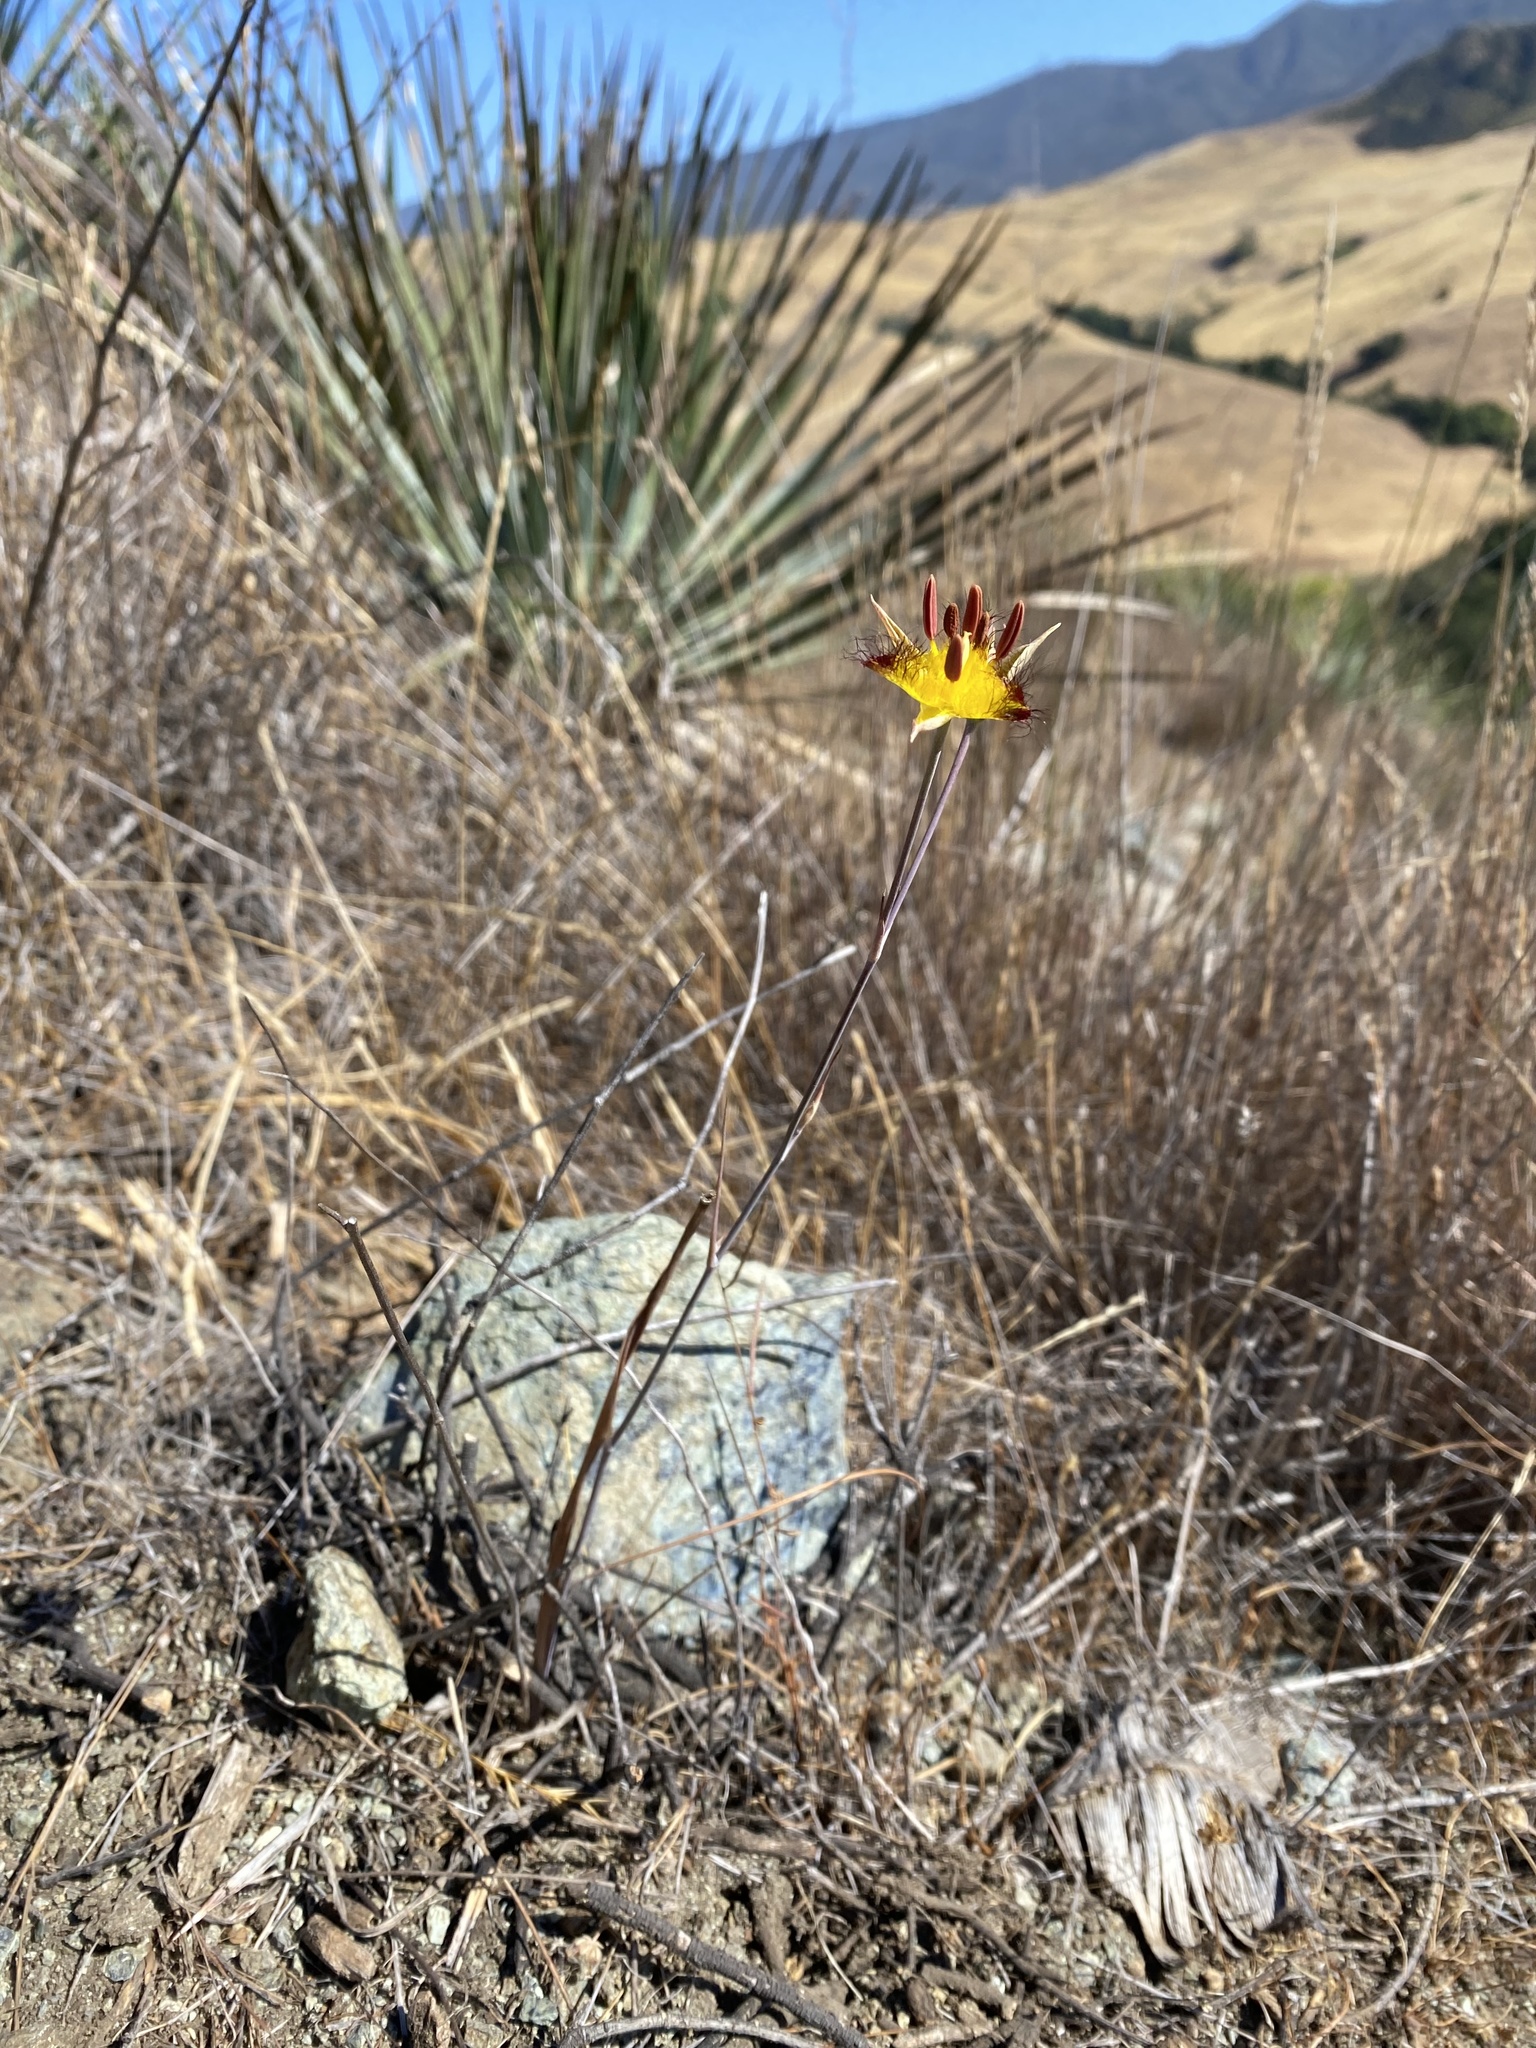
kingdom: Plantae
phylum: Tracheophyta
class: Liliopsida
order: Liliales
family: Liliaceae
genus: Calochortus
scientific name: Calochortus obispoensis
